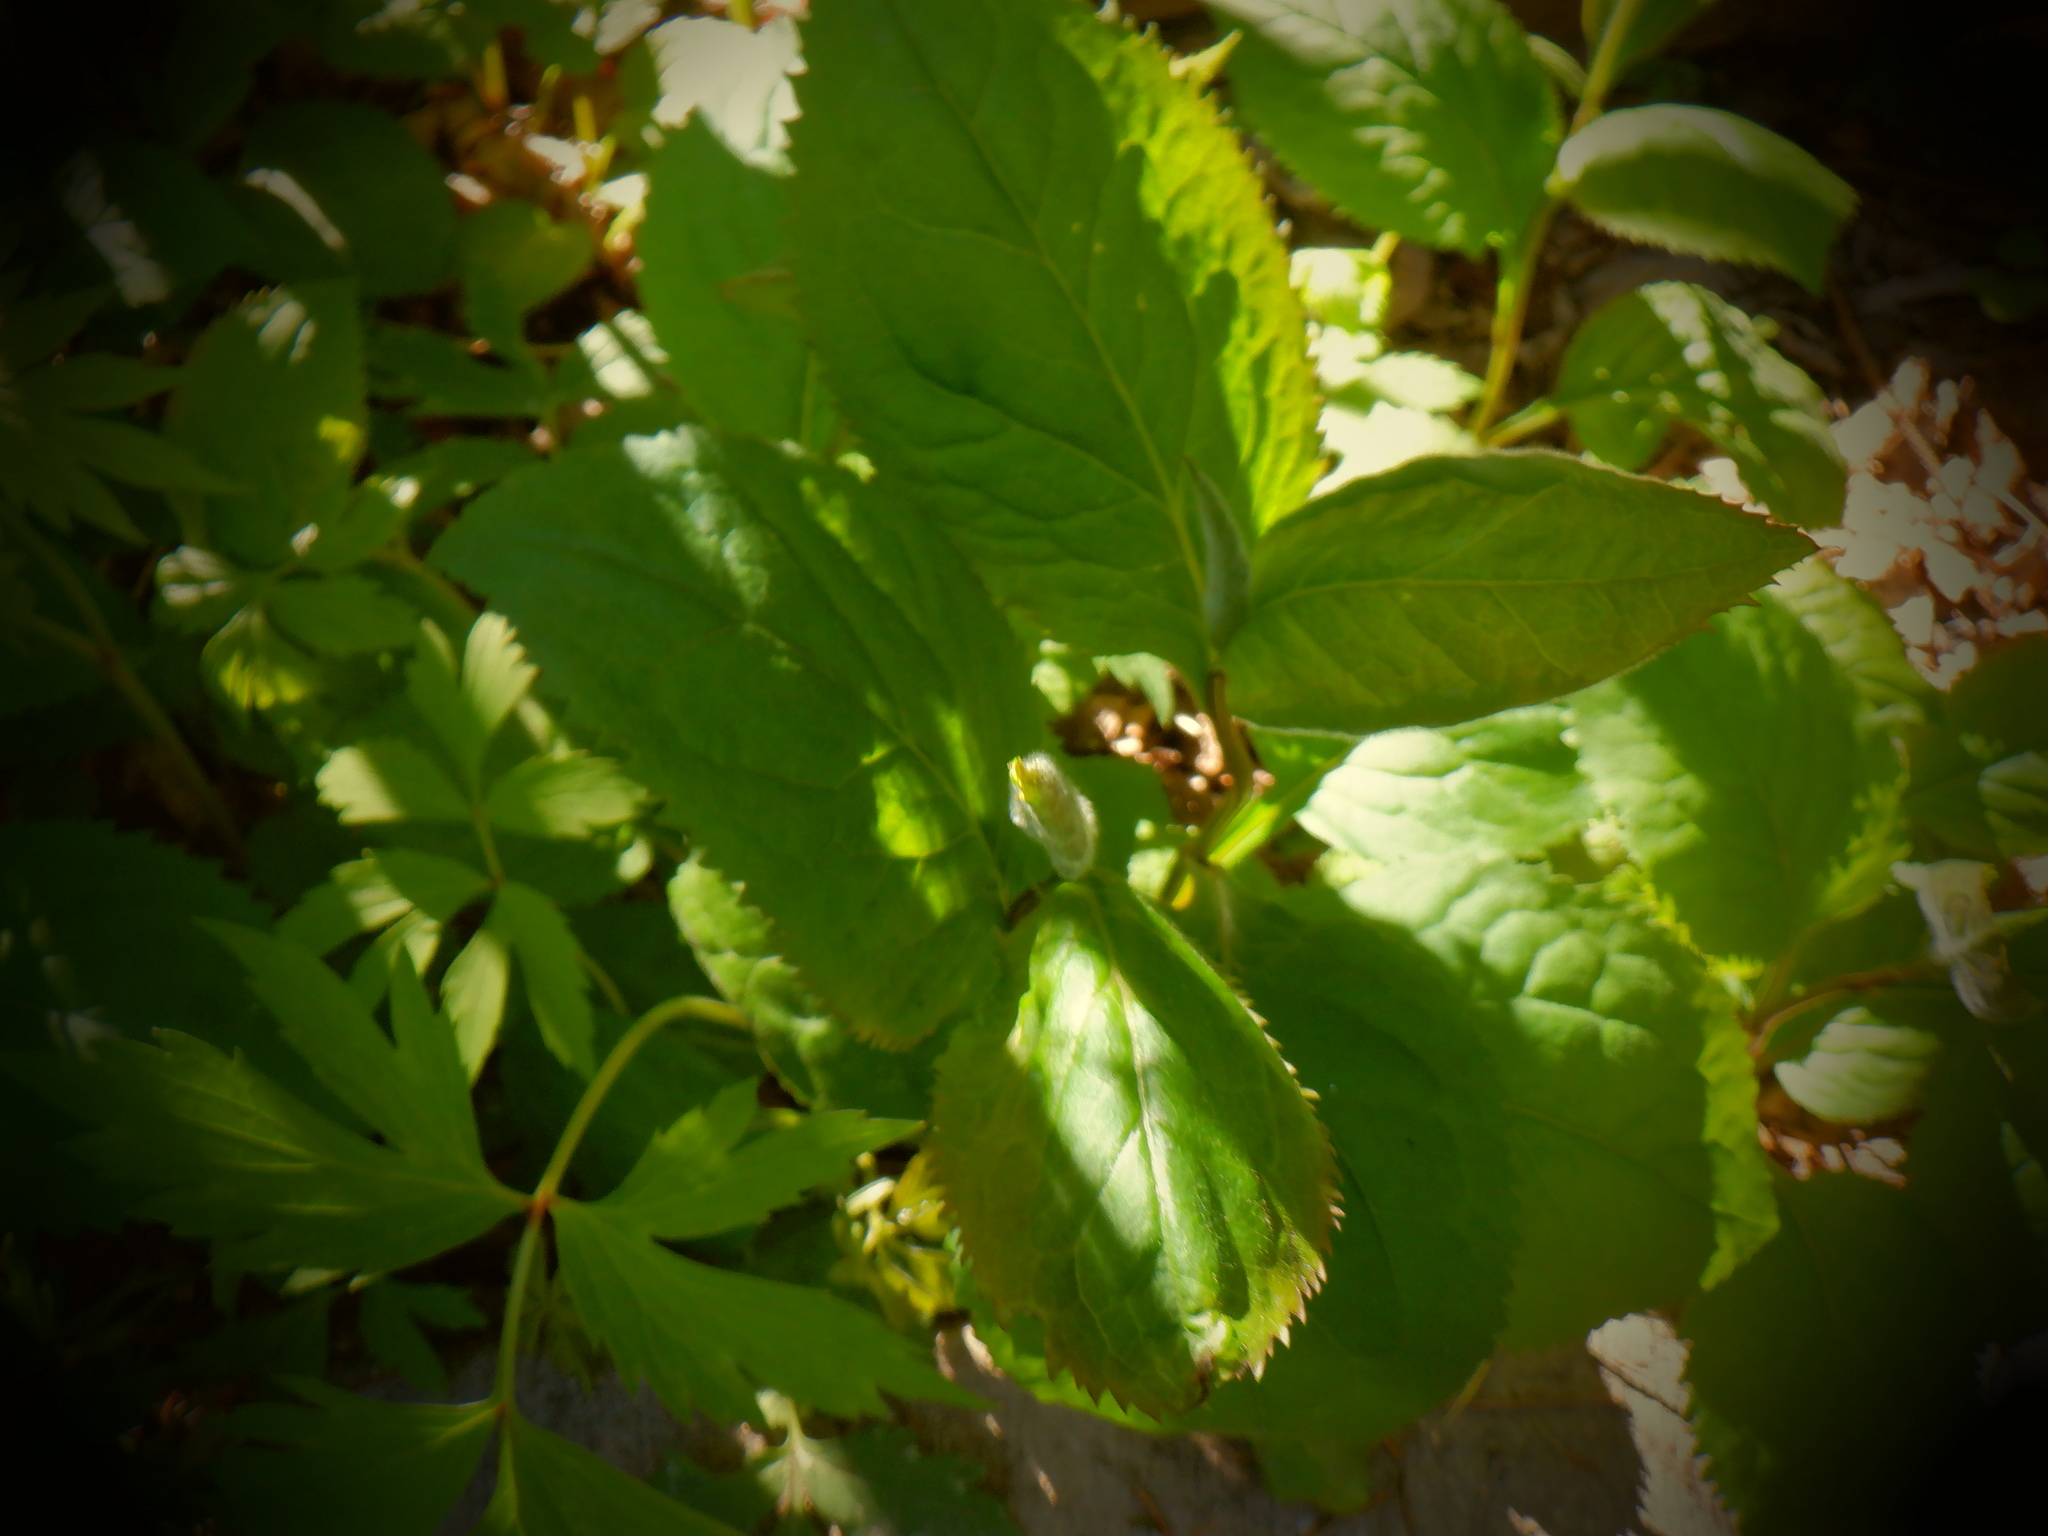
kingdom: Plantae
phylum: Tracheophyta
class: Magnoliopsida
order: Asterales
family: Asteraceae
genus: Solidago
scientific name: Solidago flexicaulis
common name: Zig-zag goldenrod
